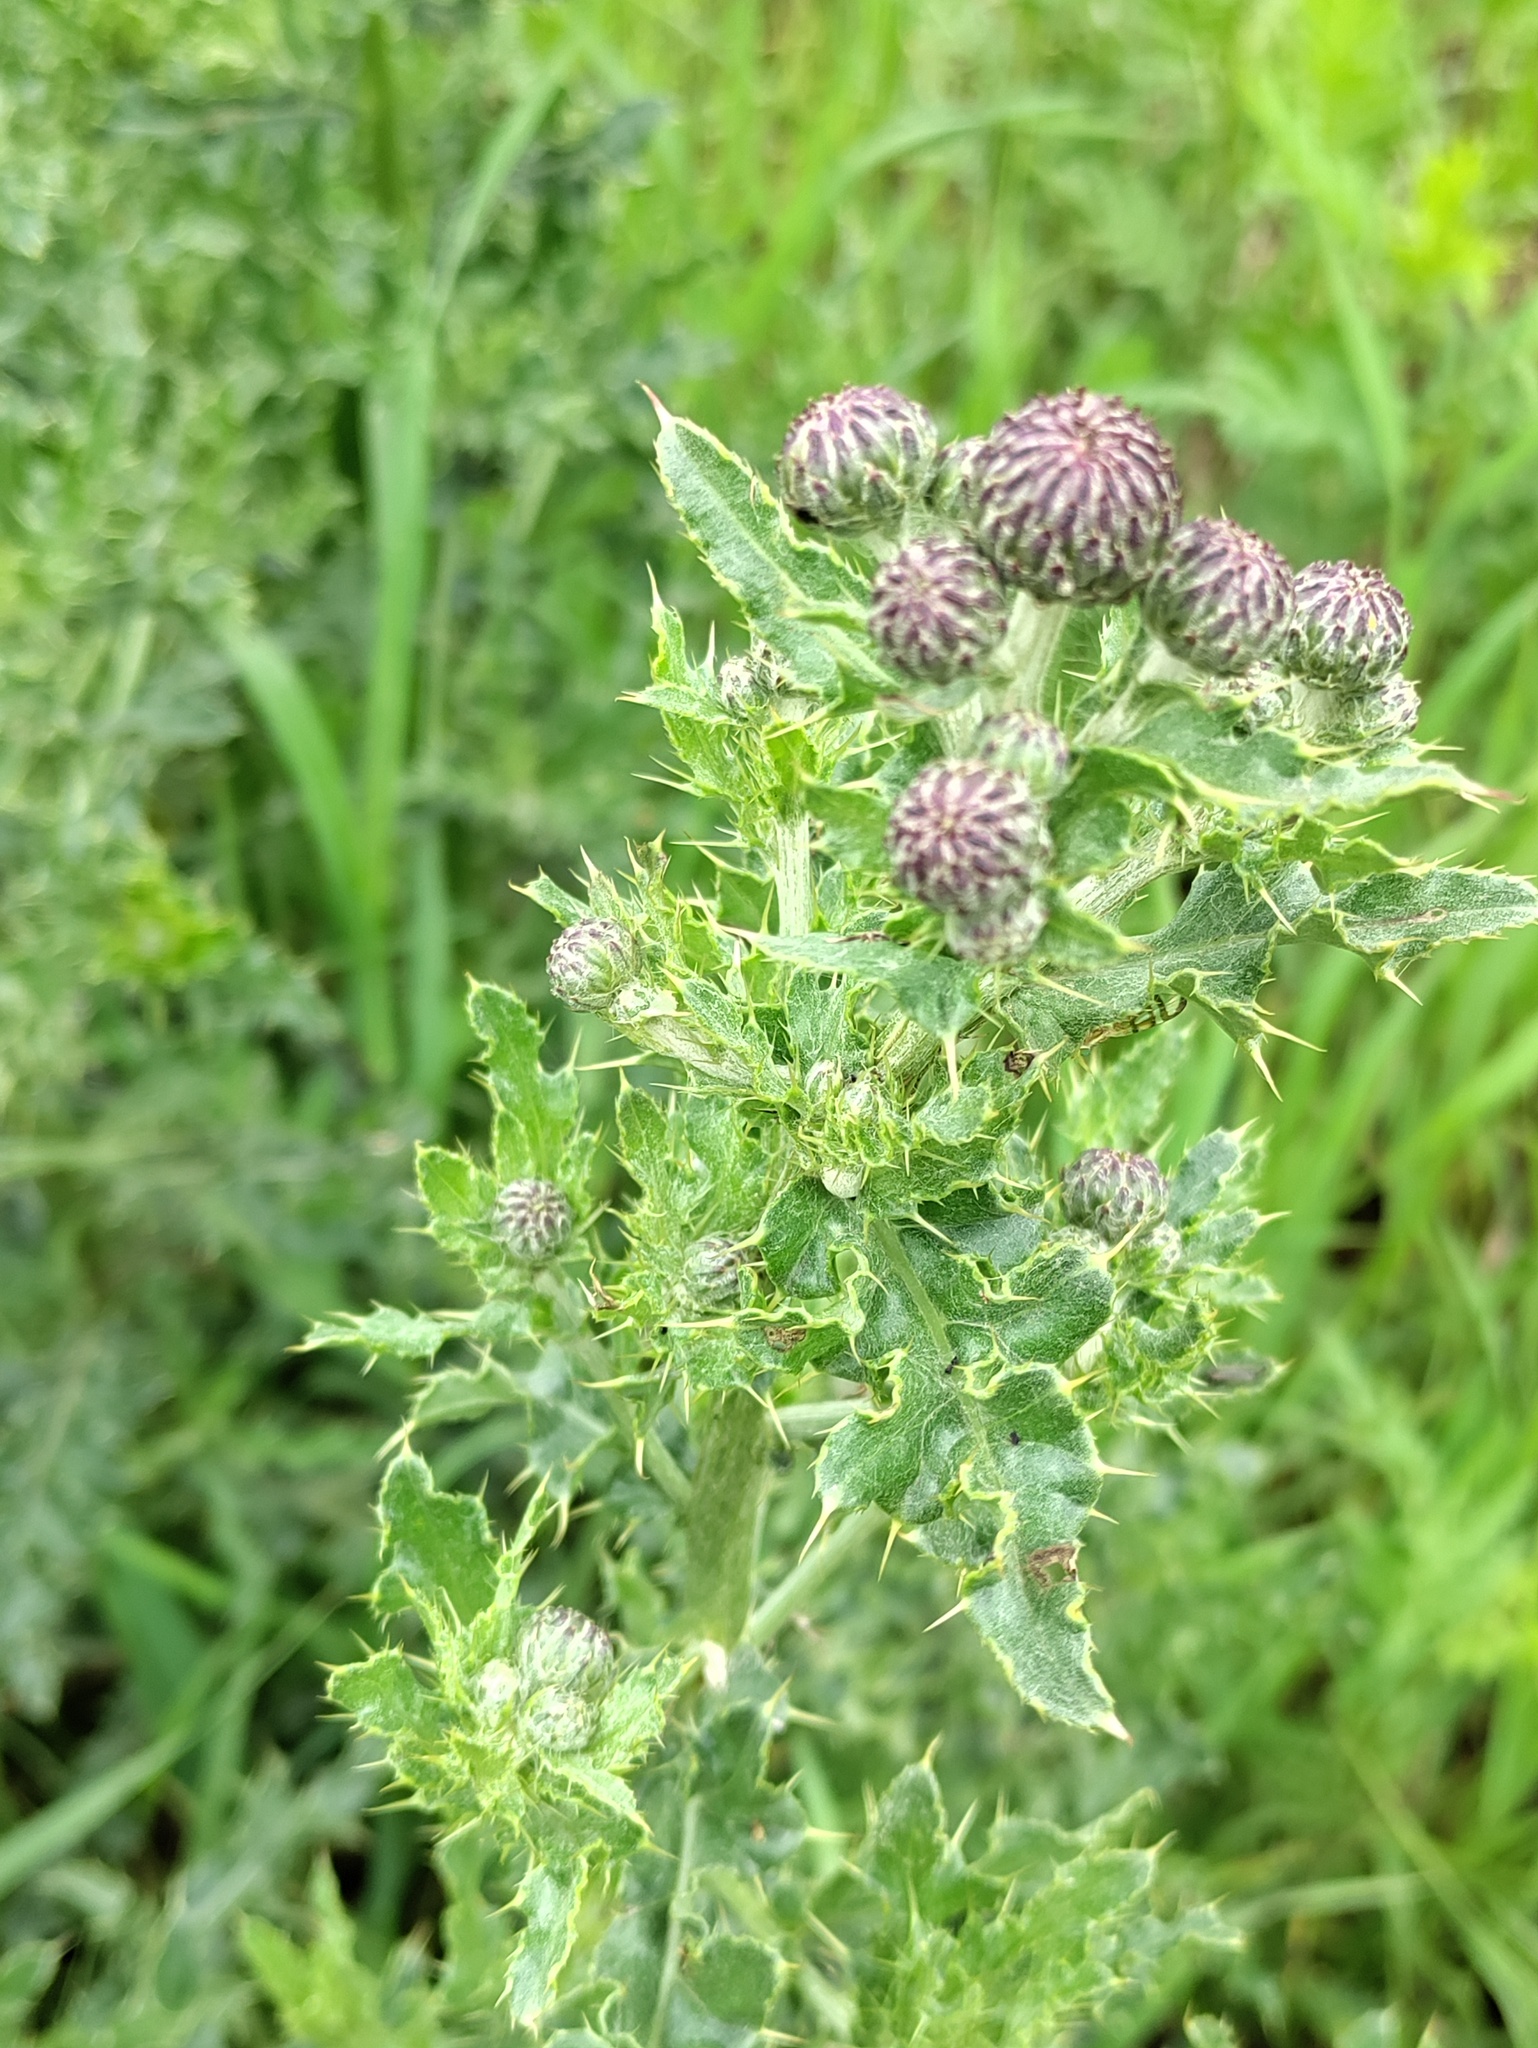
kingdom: Plantae
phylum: Tracheophyta
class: Magnoliopsida
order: Asterales
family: Asteraceae
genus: Cirsium
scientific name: Cirsium arvense
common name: Creeping thistle
